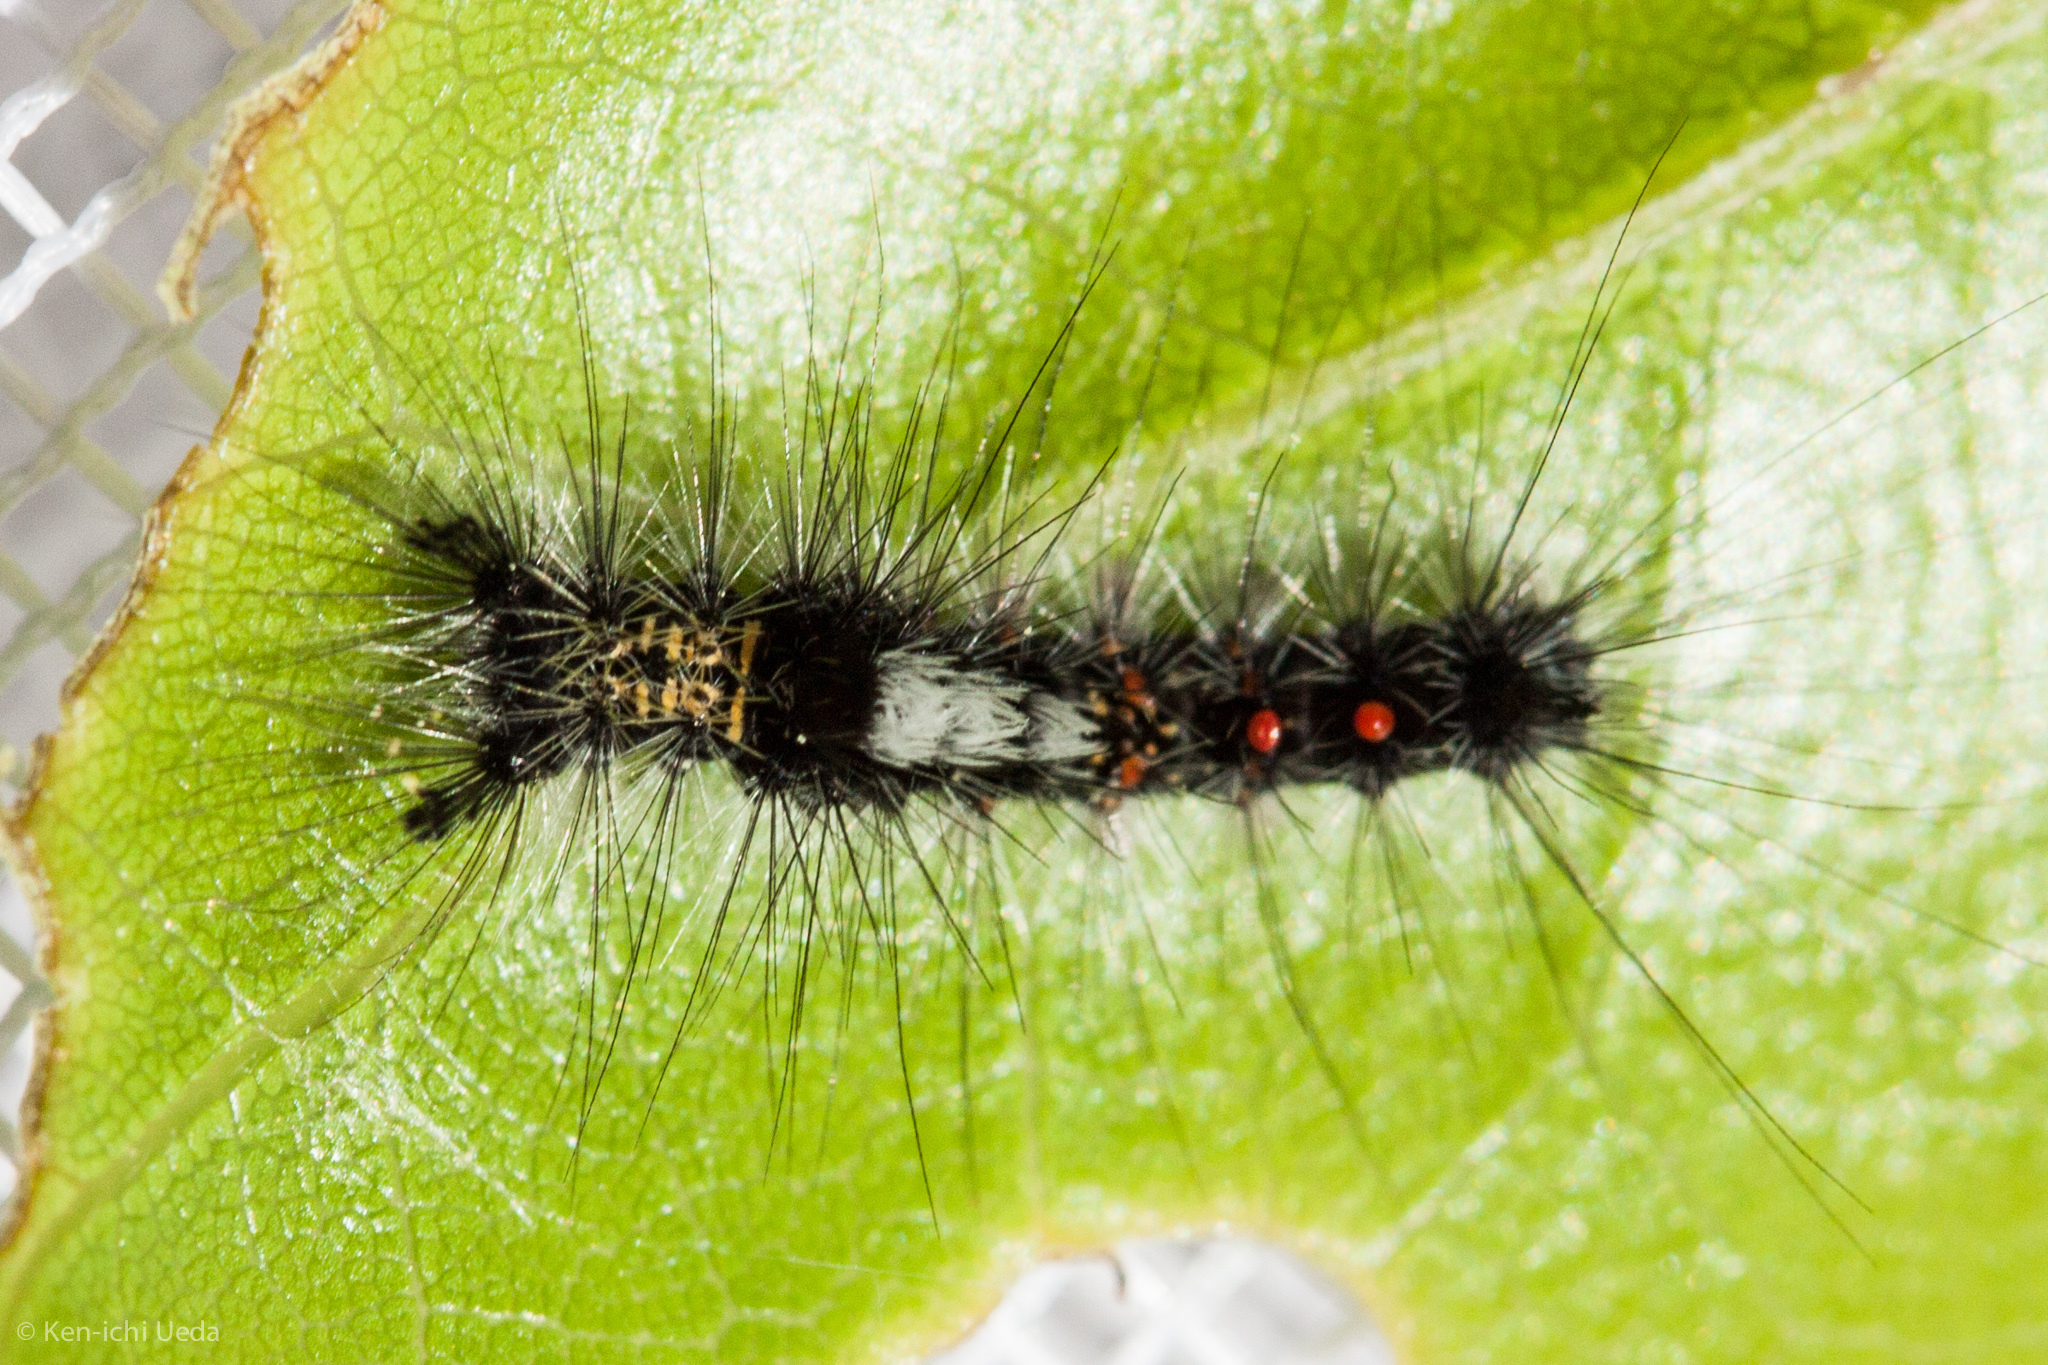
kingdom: Animalia
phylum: Arthropoda
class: Insecta
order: Lepidoptera
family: Erebidae
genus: Orgyia
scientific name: Orgyia vetusta
